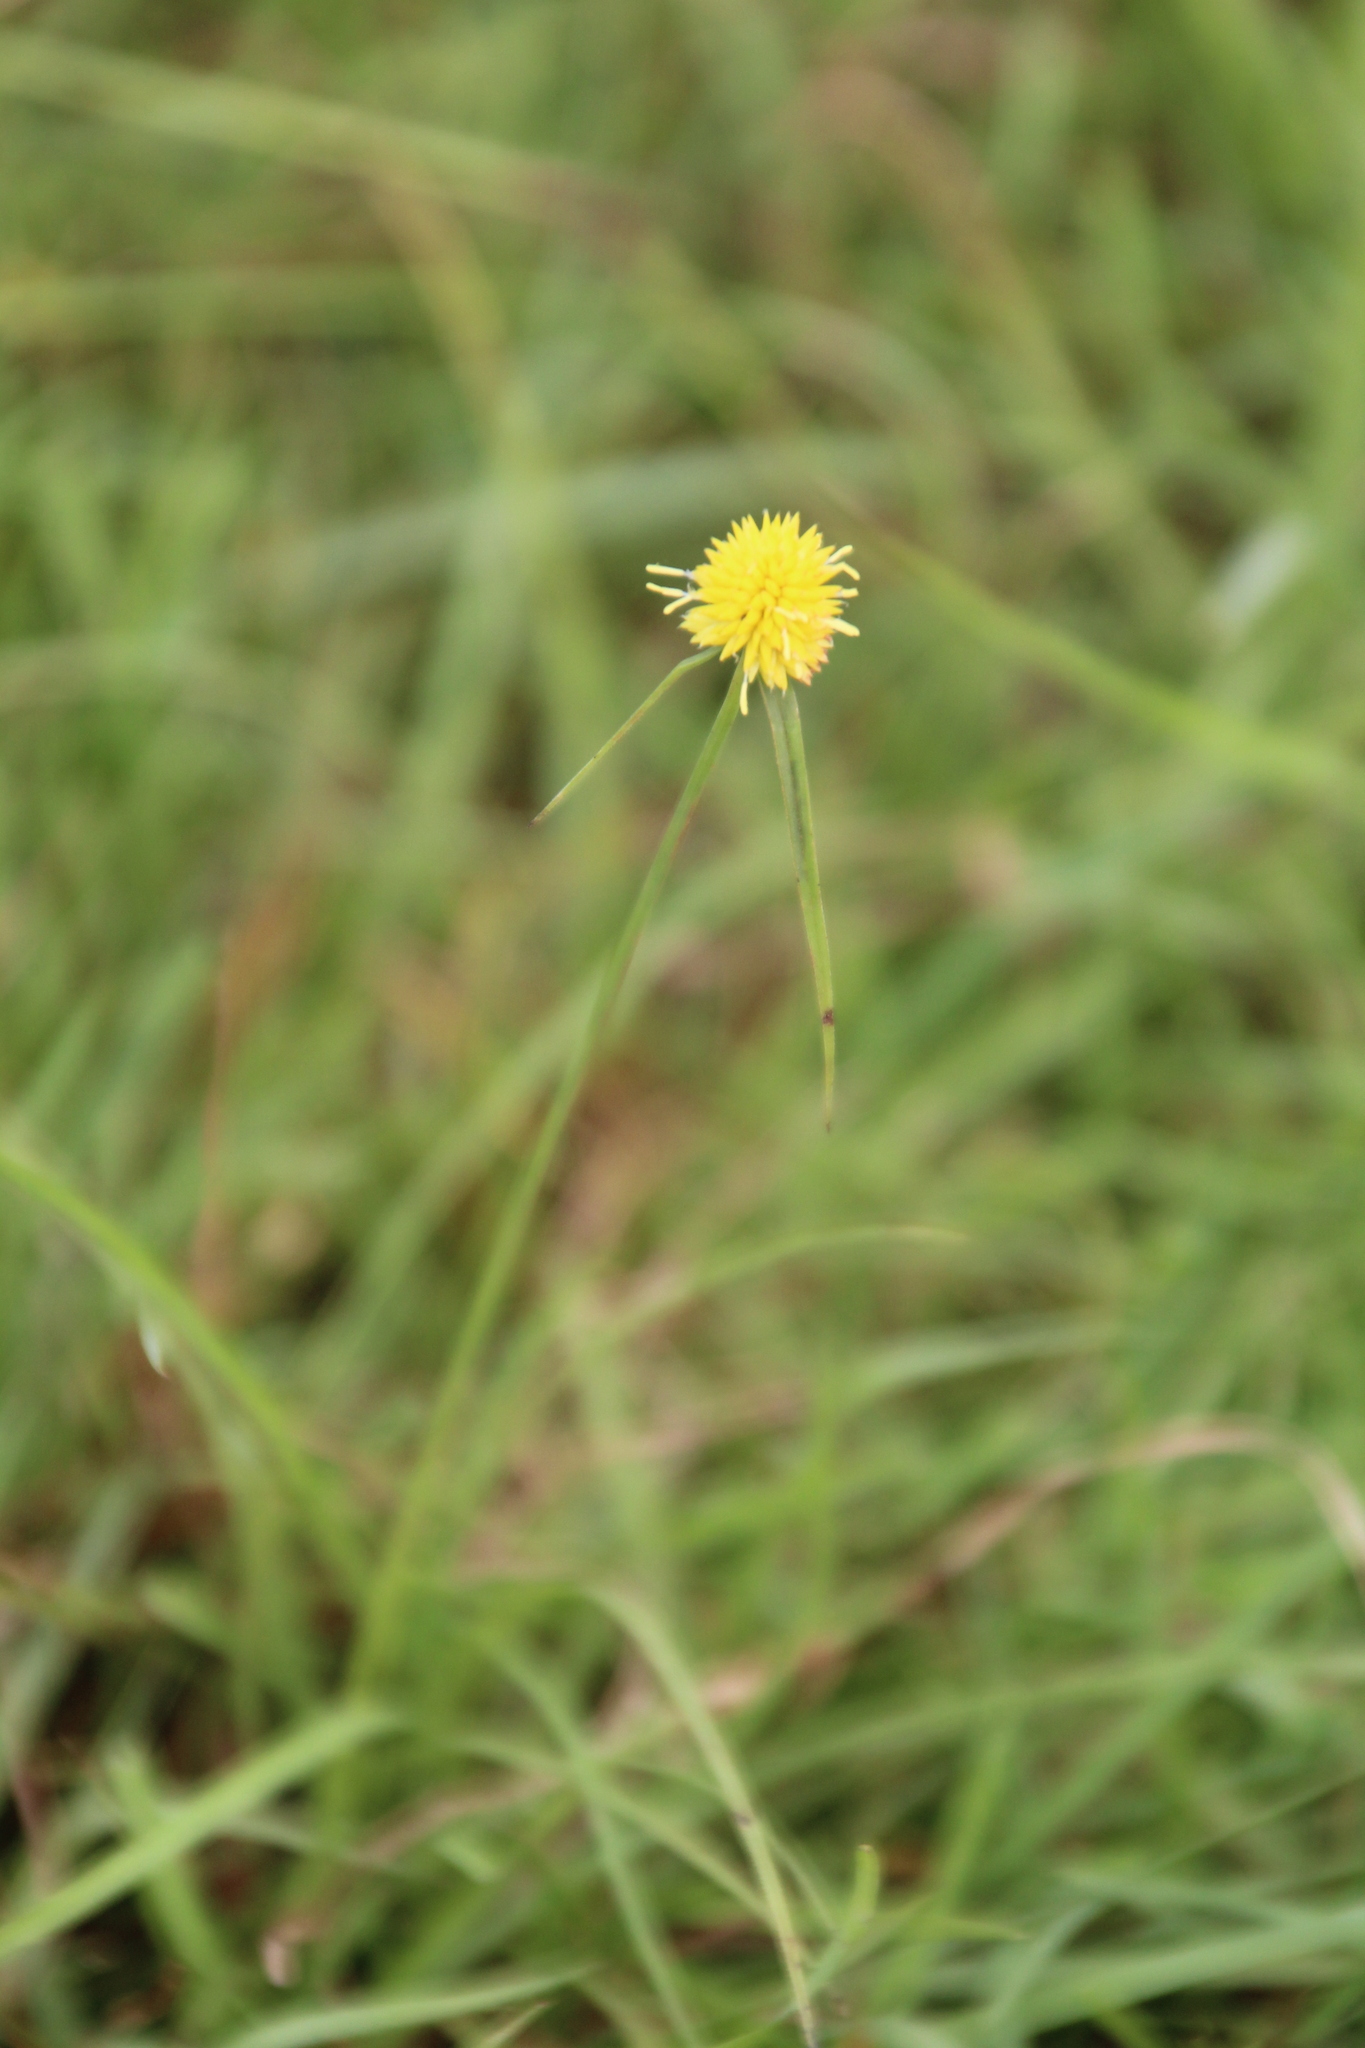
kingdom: Plantae
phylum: Tracheophyta
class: Liliopsida
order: Poales
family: Cyperaceae
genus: Cyperus
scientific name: Cyperus boreochrysocephalus
